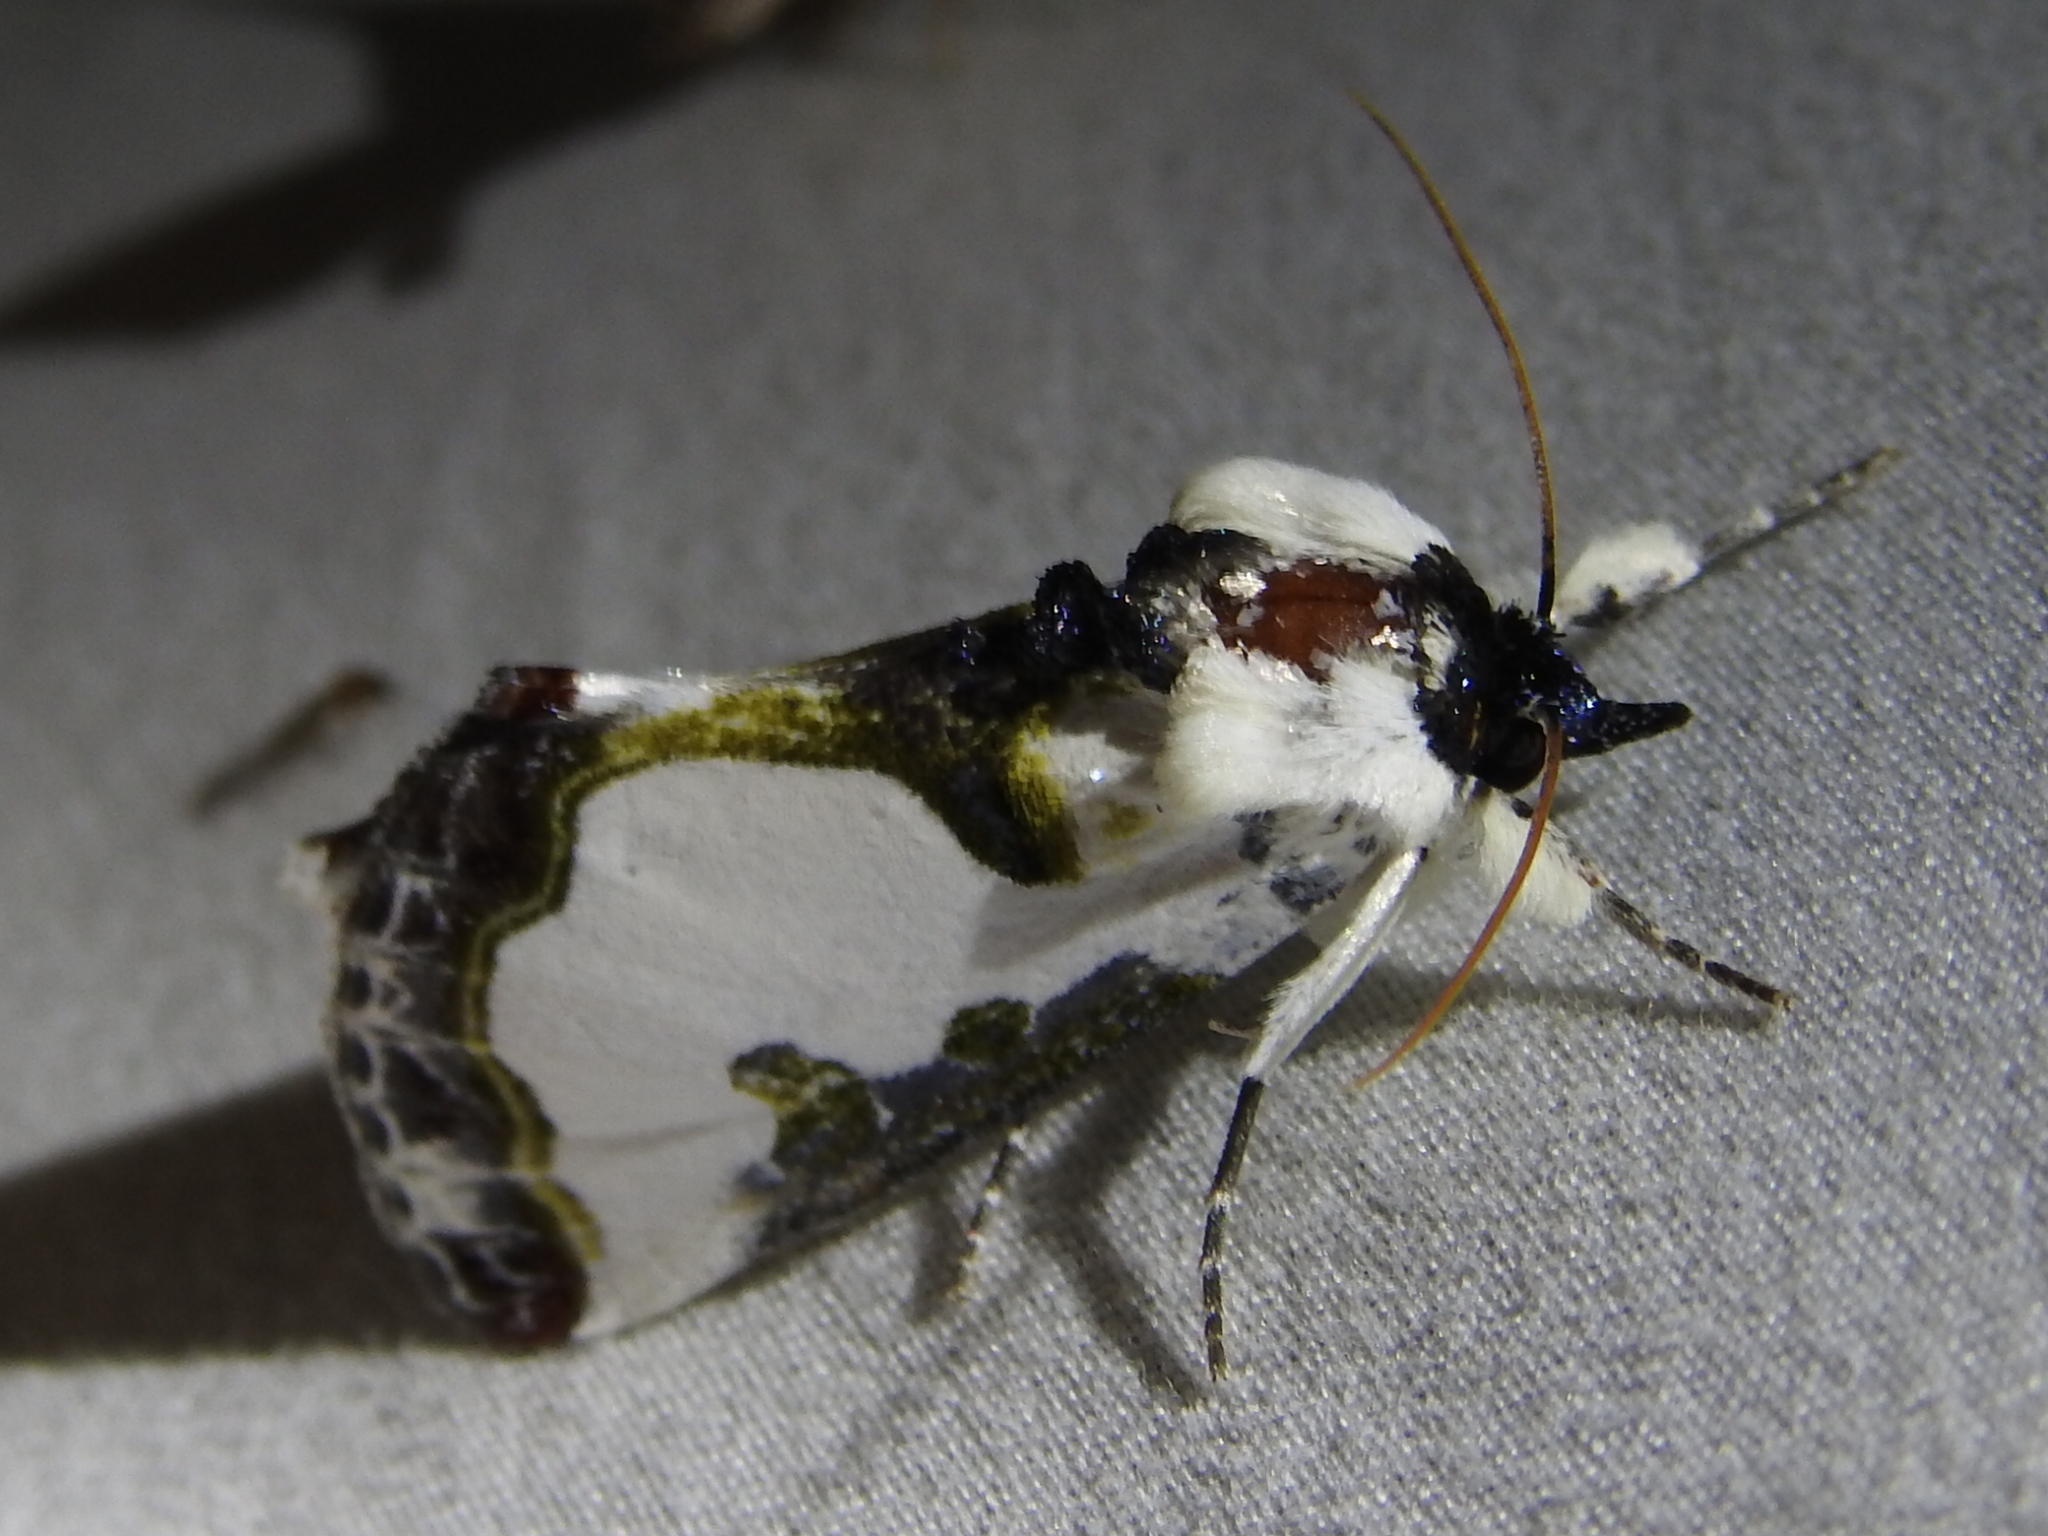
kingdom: Animalia
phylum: Arthropoda
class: Insecta
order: Lepidoptera
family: Noctuidae
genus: Xerociris
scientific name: Xerociris wilsonii
